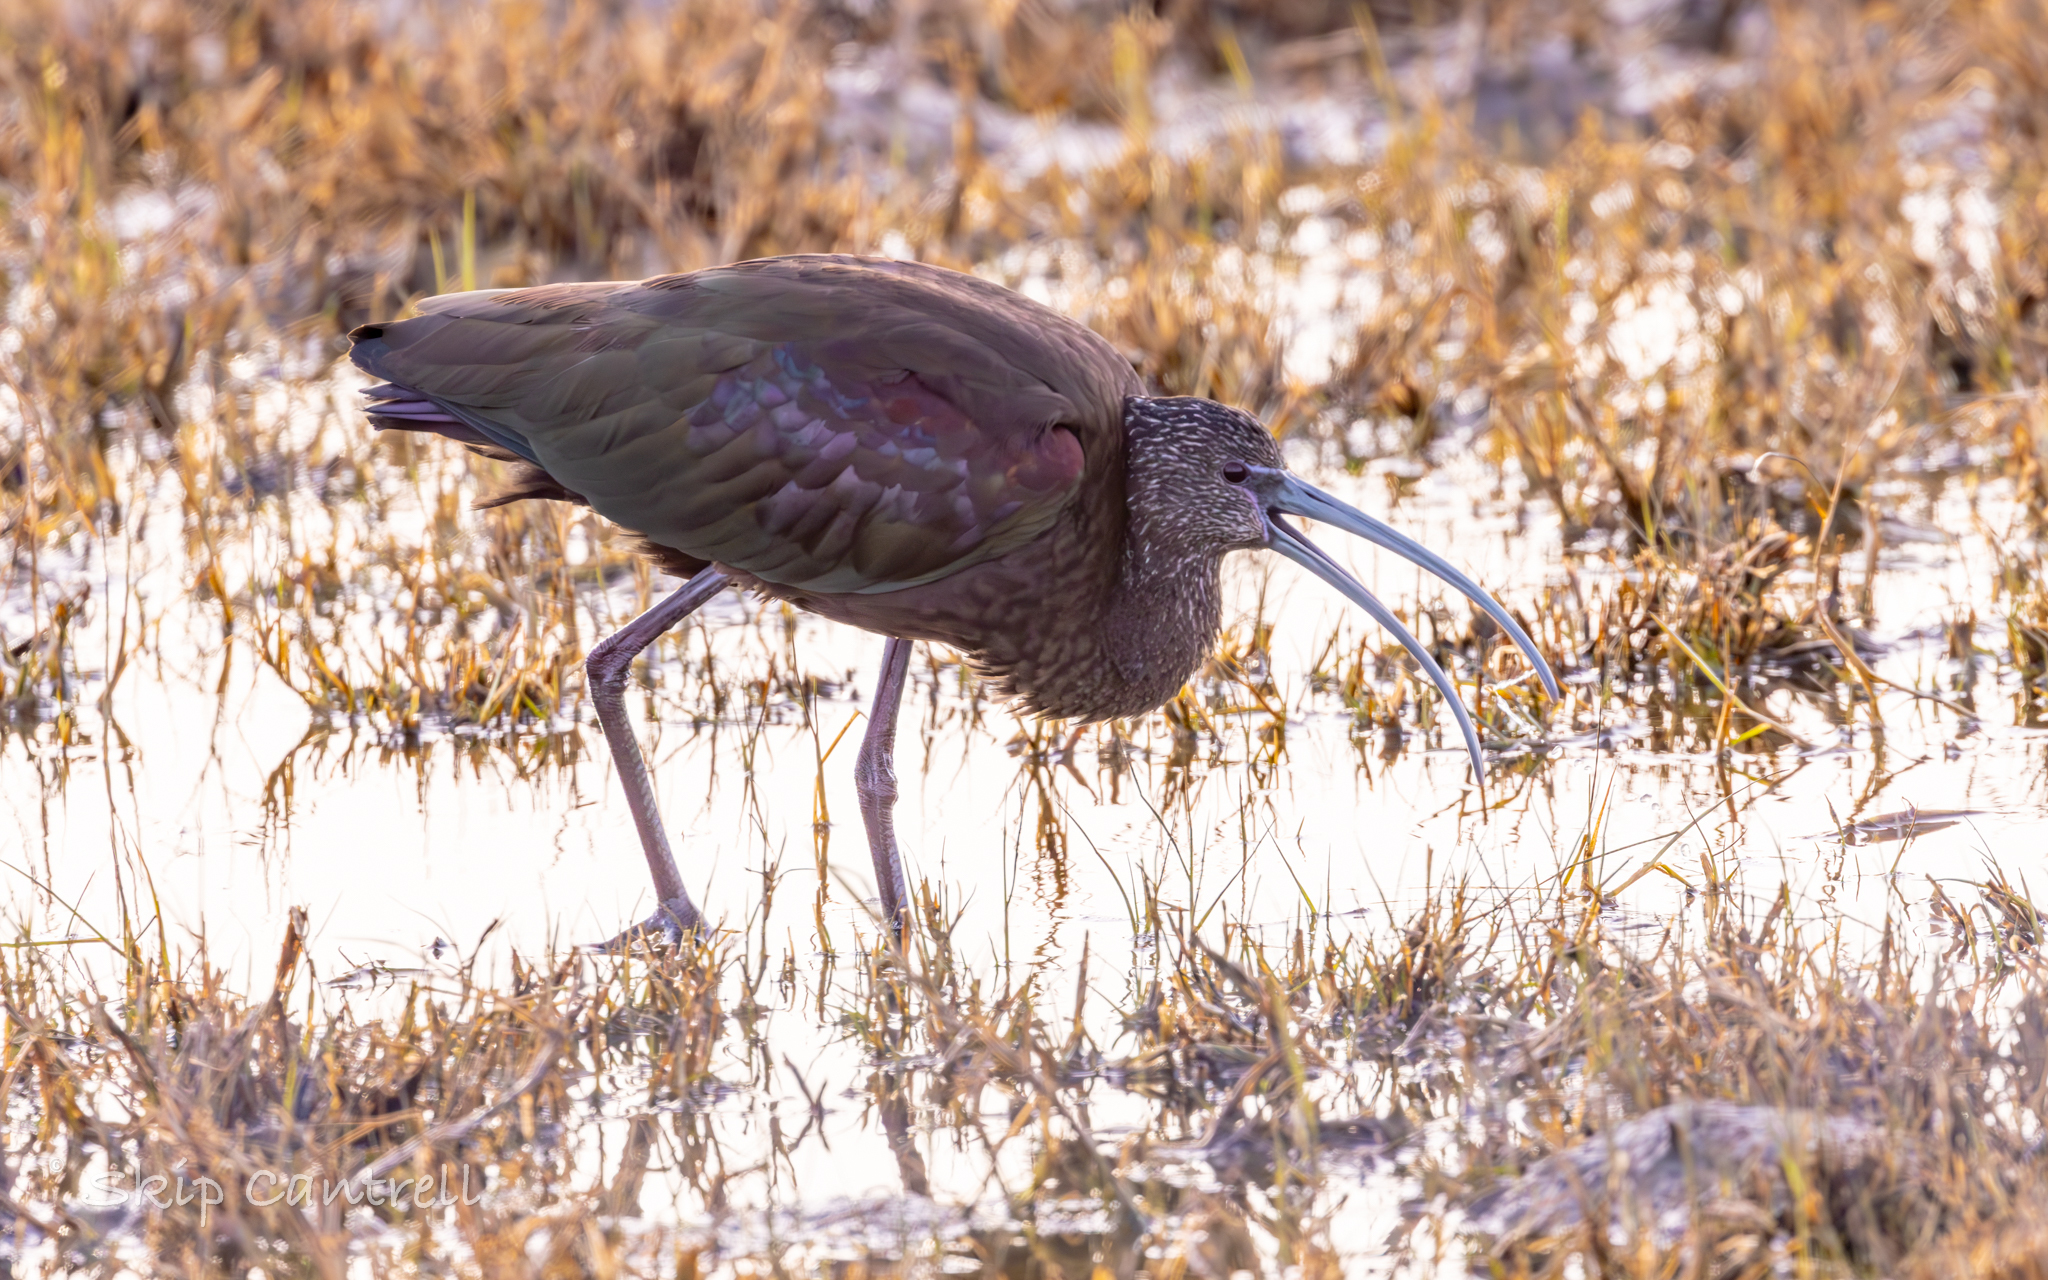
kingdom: Animalia
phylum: Chordata
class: Aves
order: Pelecaniformes
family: Threskiornithidae
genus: Plegadis
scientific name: Plegadis chihi
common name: White-faced ibis
